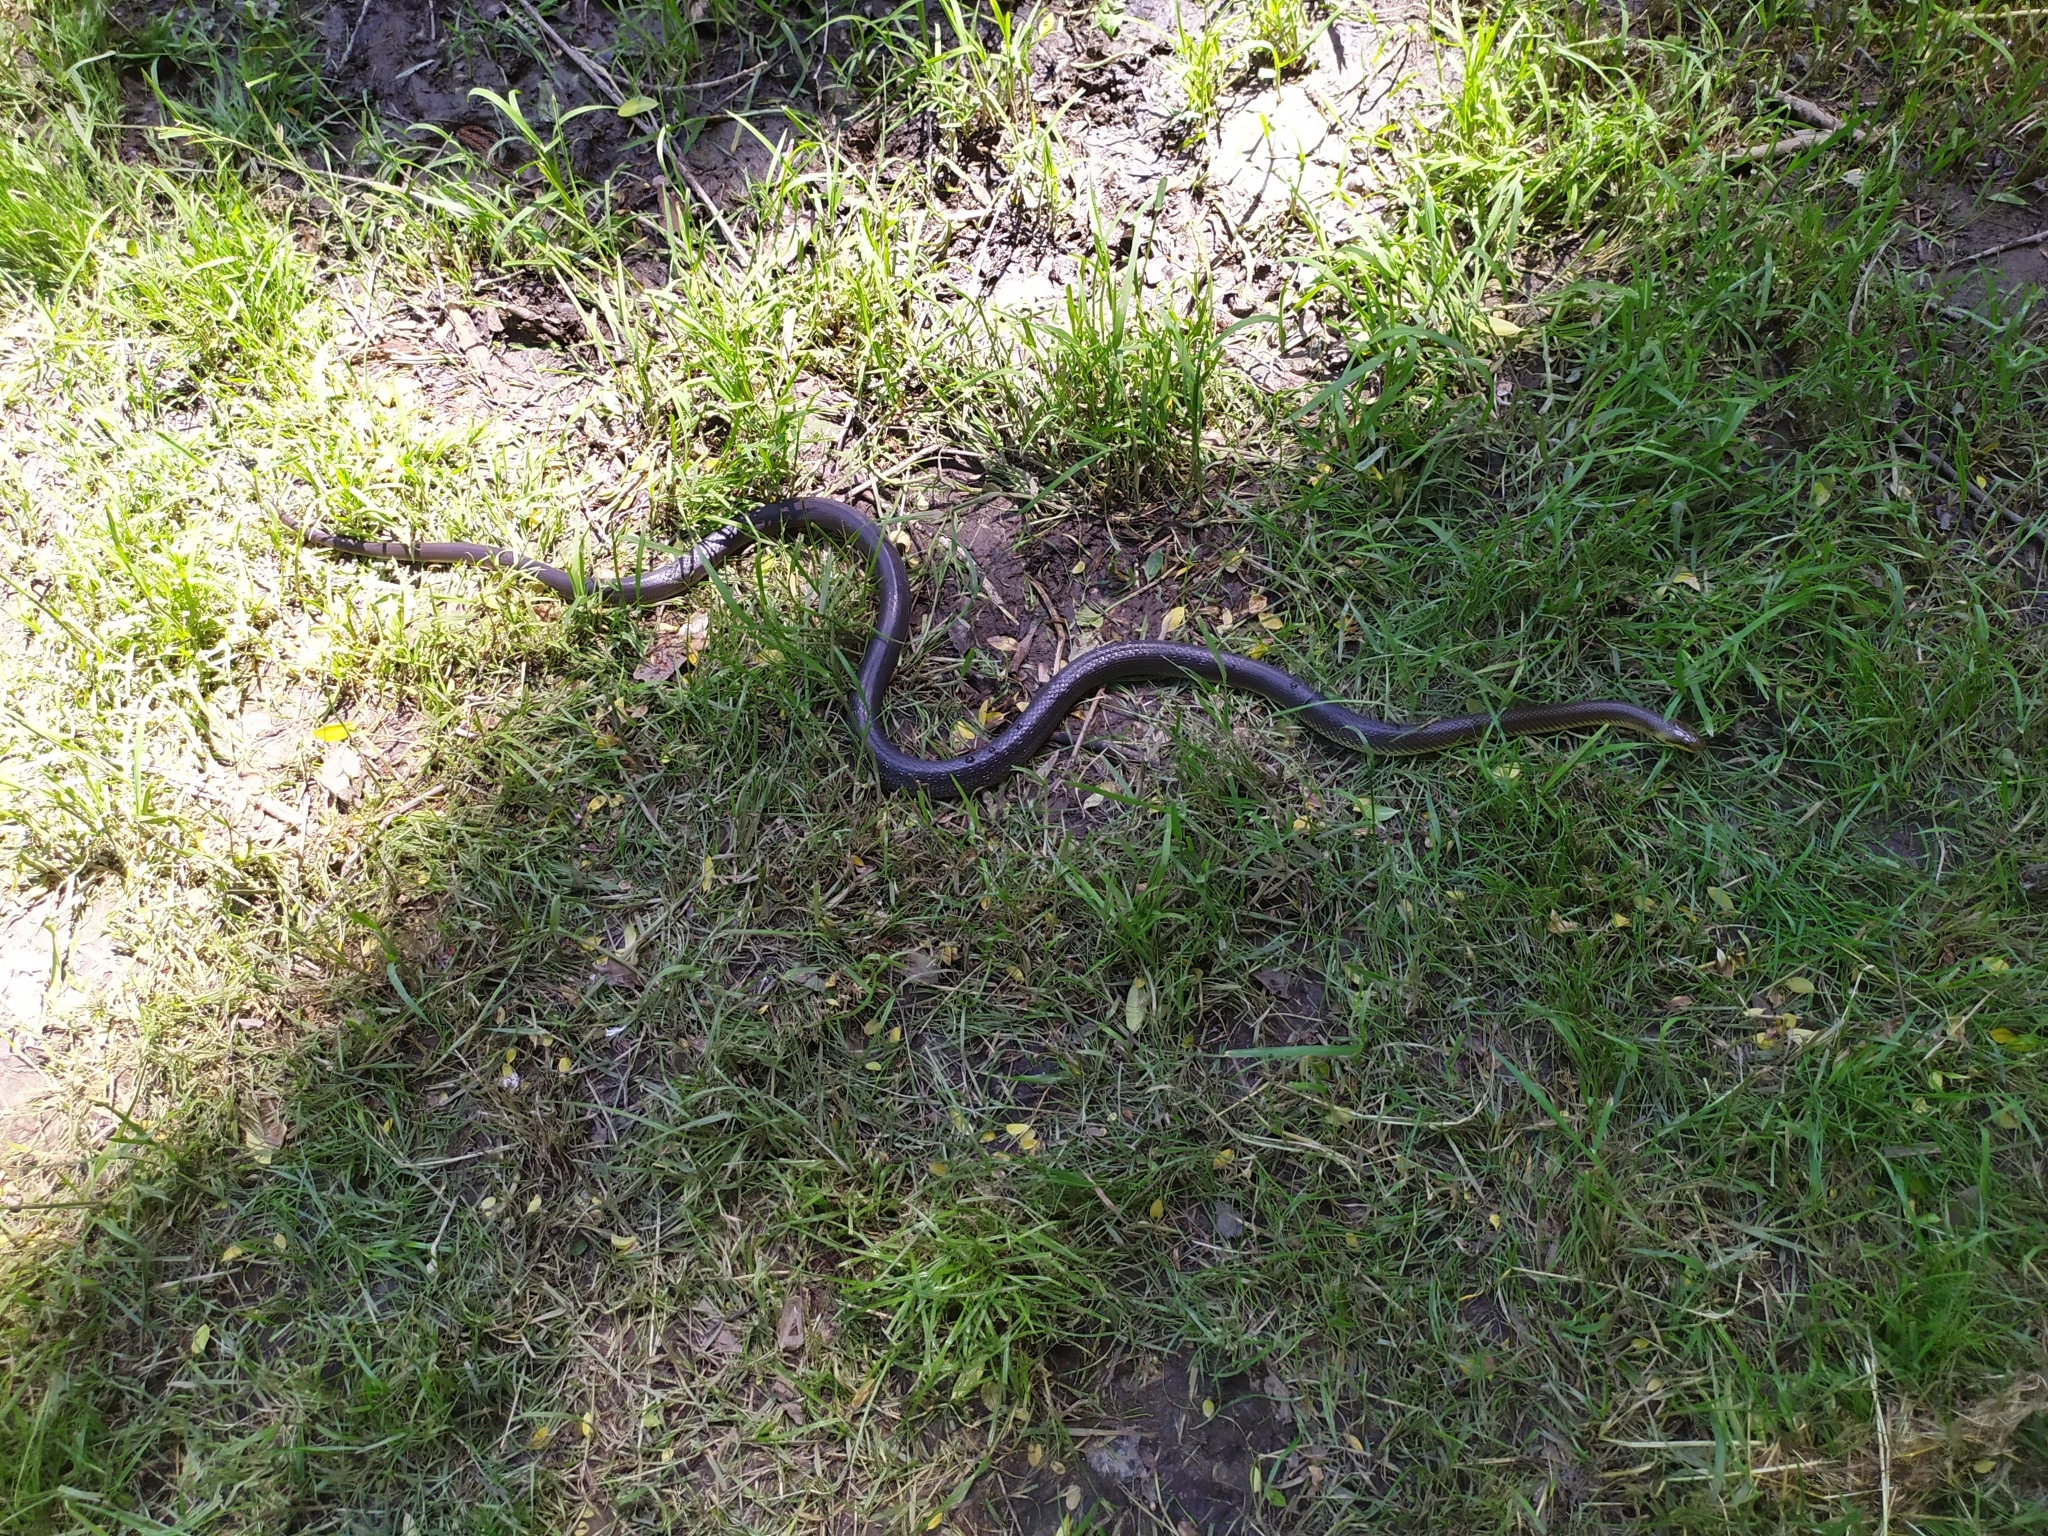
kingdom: Animalia
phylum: Chordata
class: Squamata
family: Colubridae
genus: Zamenis
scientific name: Zamenis longissimus
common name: Aesculapean snake
